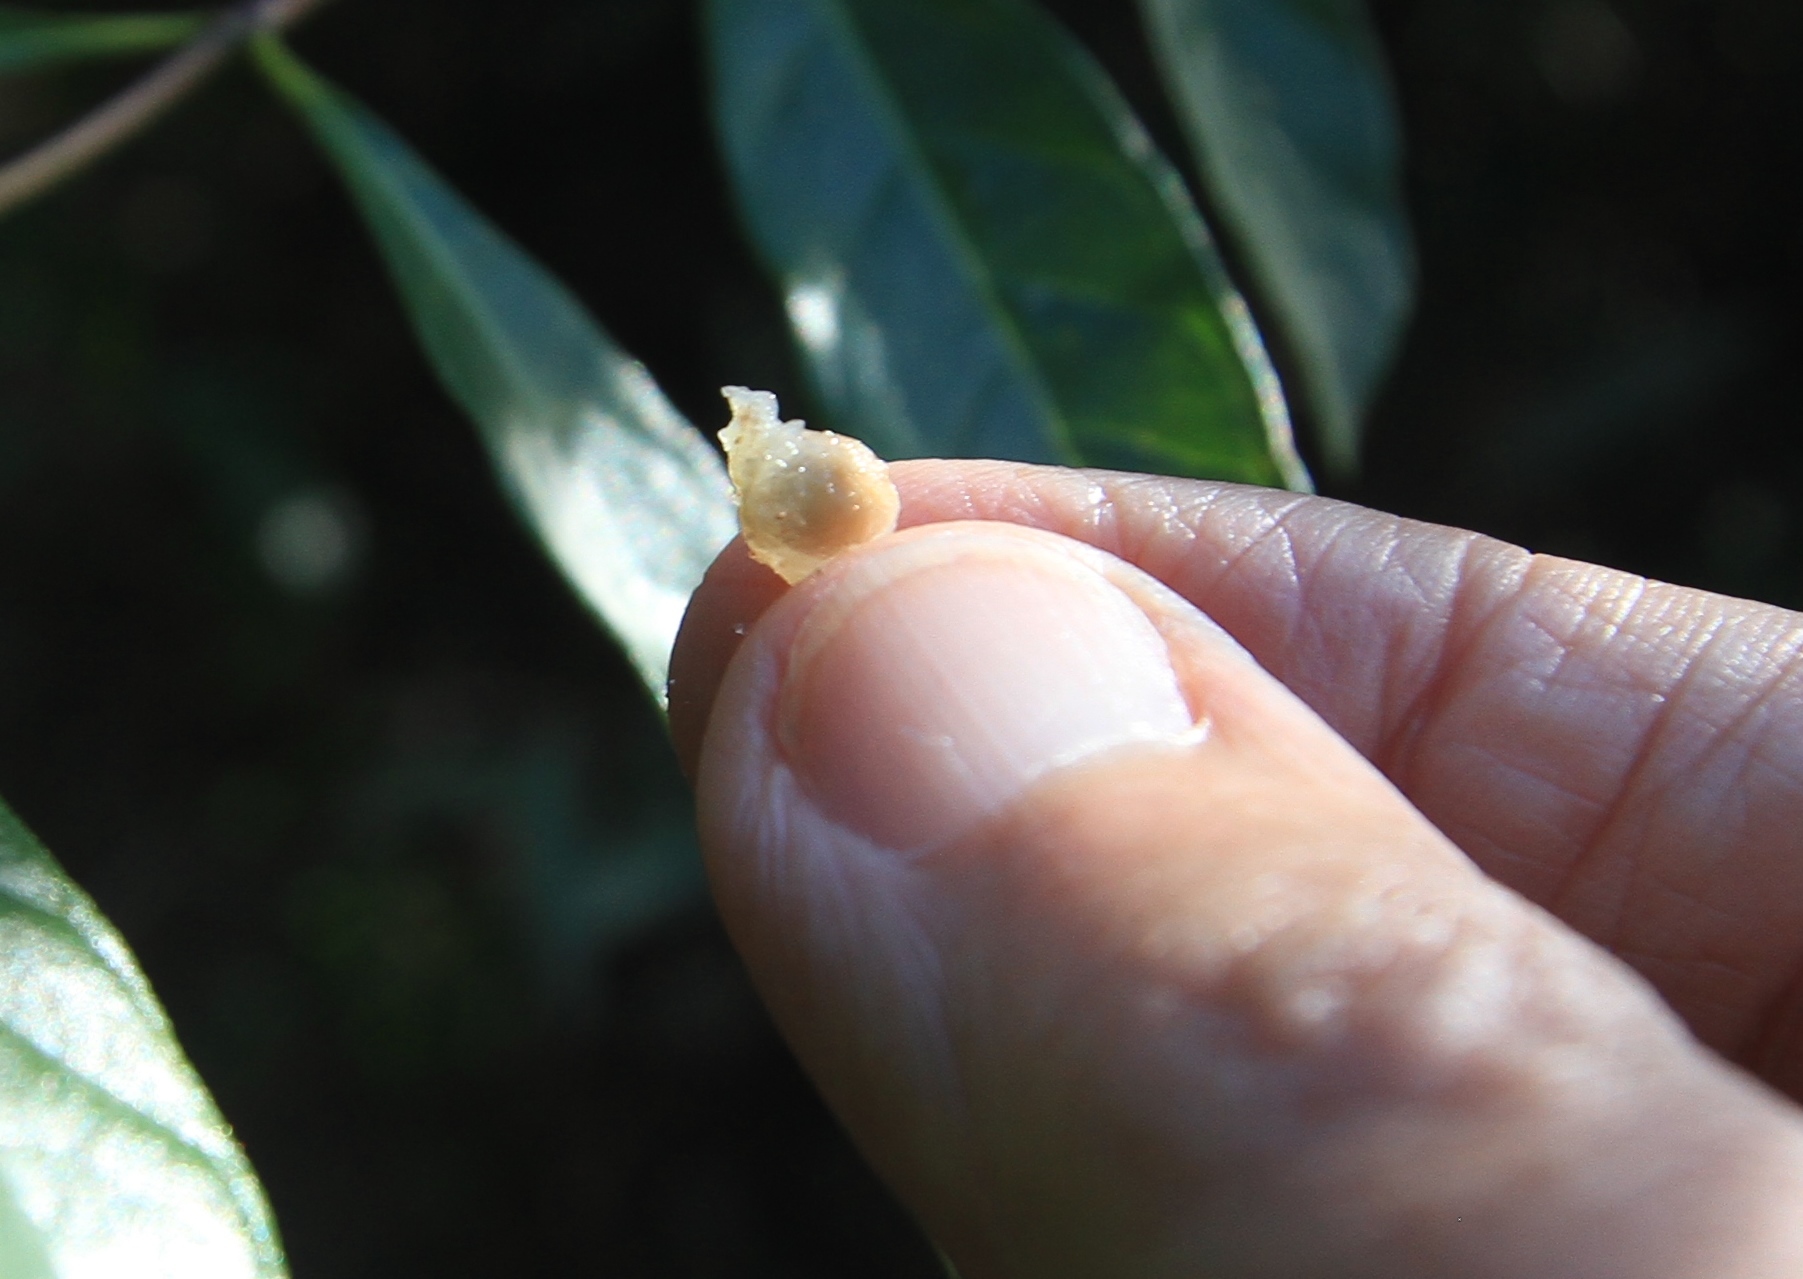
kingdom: Plantae
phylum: Tracheophyta
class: Magnoliopsida
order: Sapindales
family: Sapindaceae
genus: Allophylus
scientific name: Allophylus rigidus
